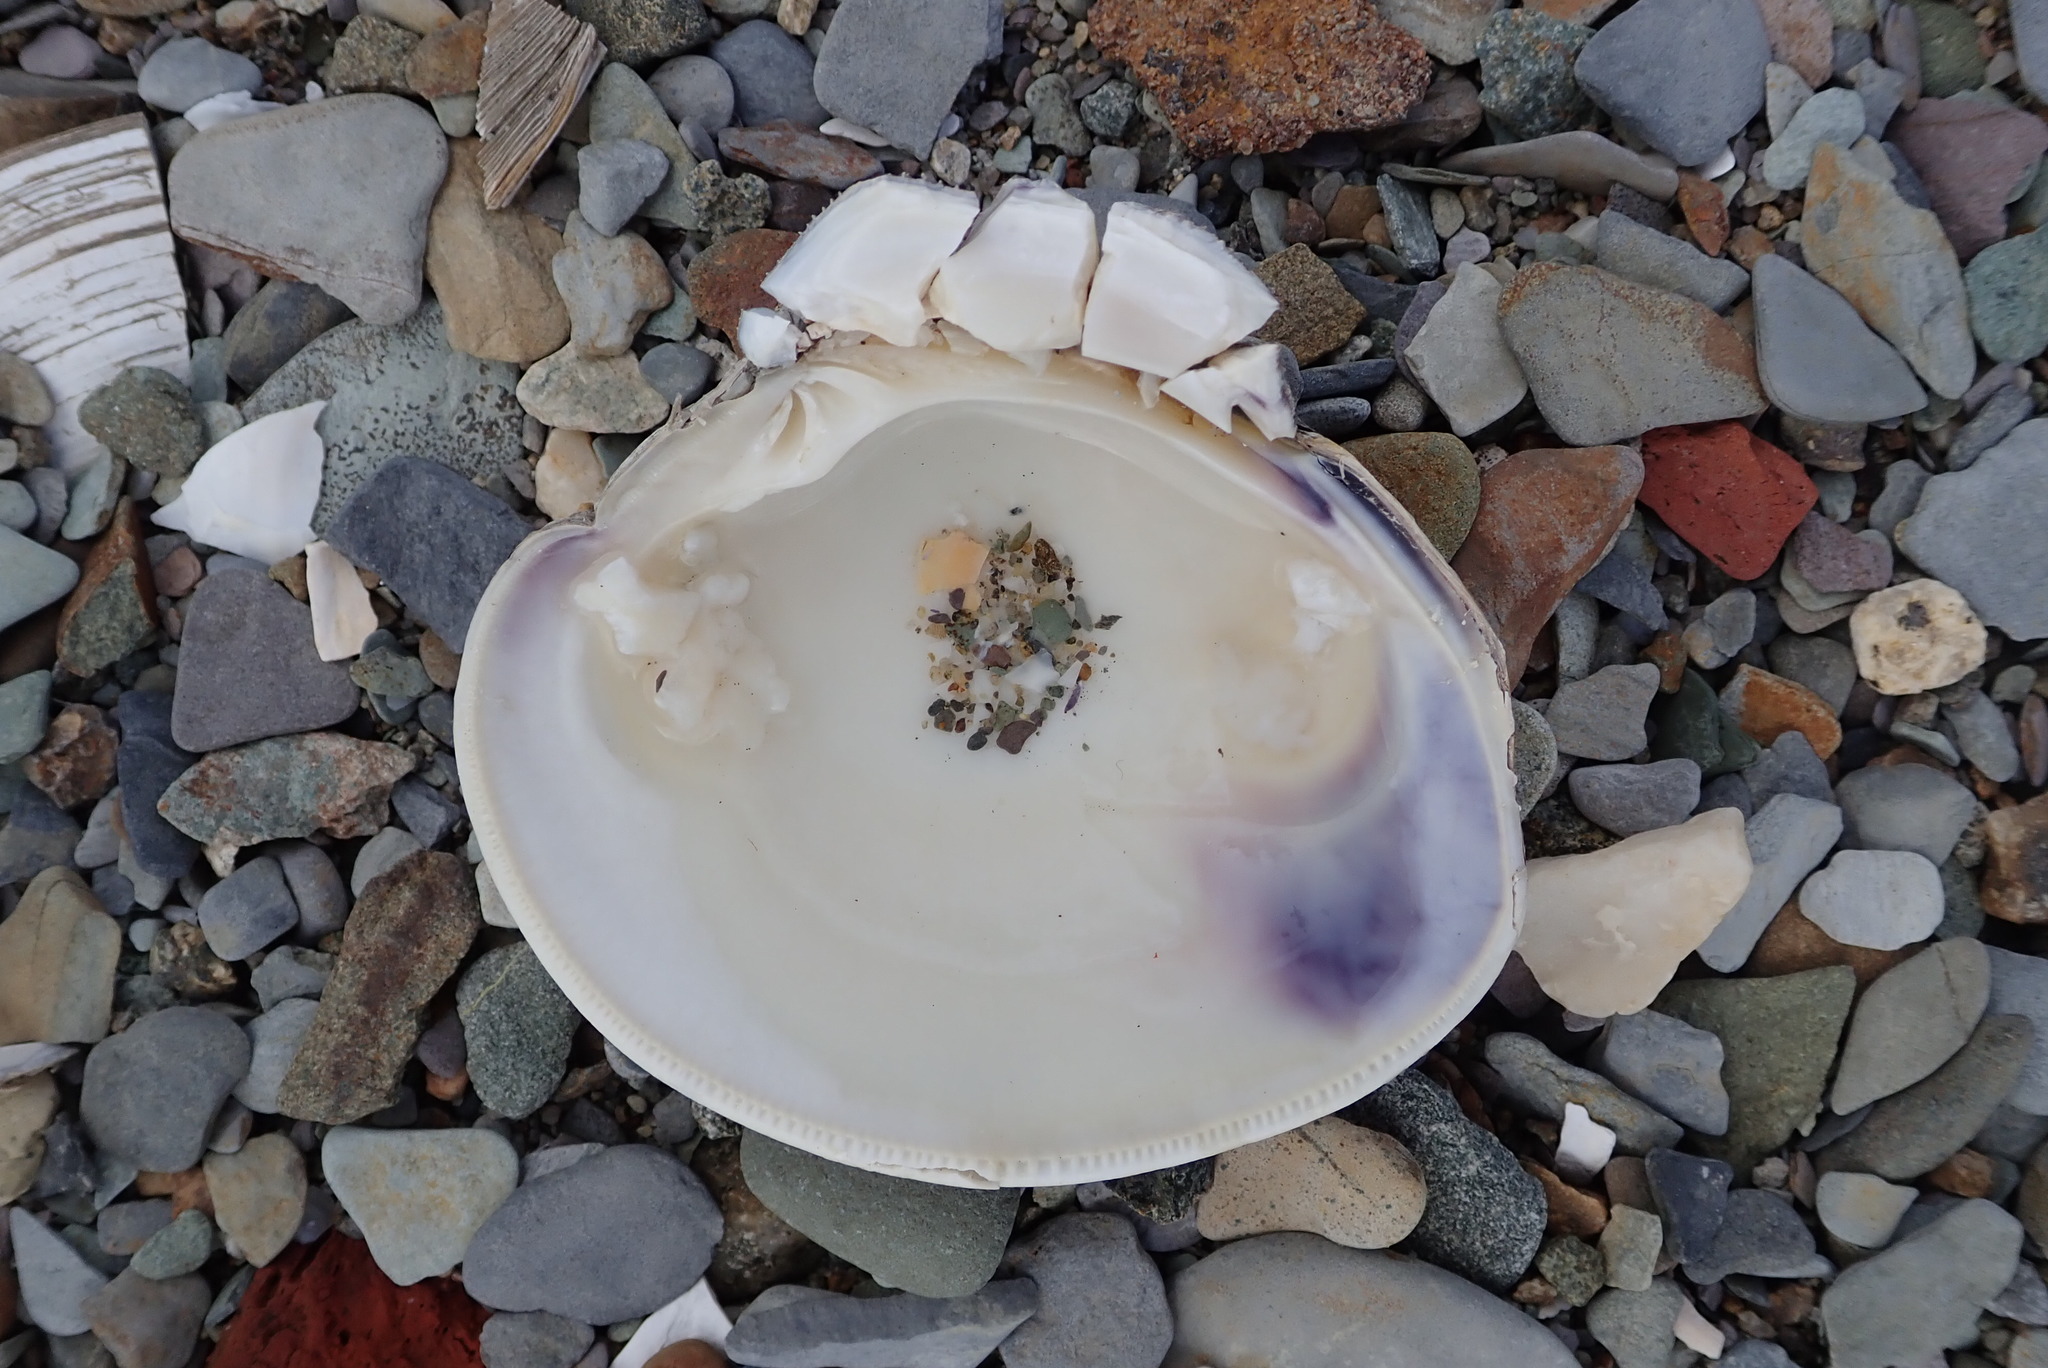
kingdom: Animalia
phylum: Mollusca
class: Bivalvia
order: Venerida
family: Veneridae
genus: Mercenaria
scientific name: Mercenaria mercenaria
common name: American hard-shelled clam
